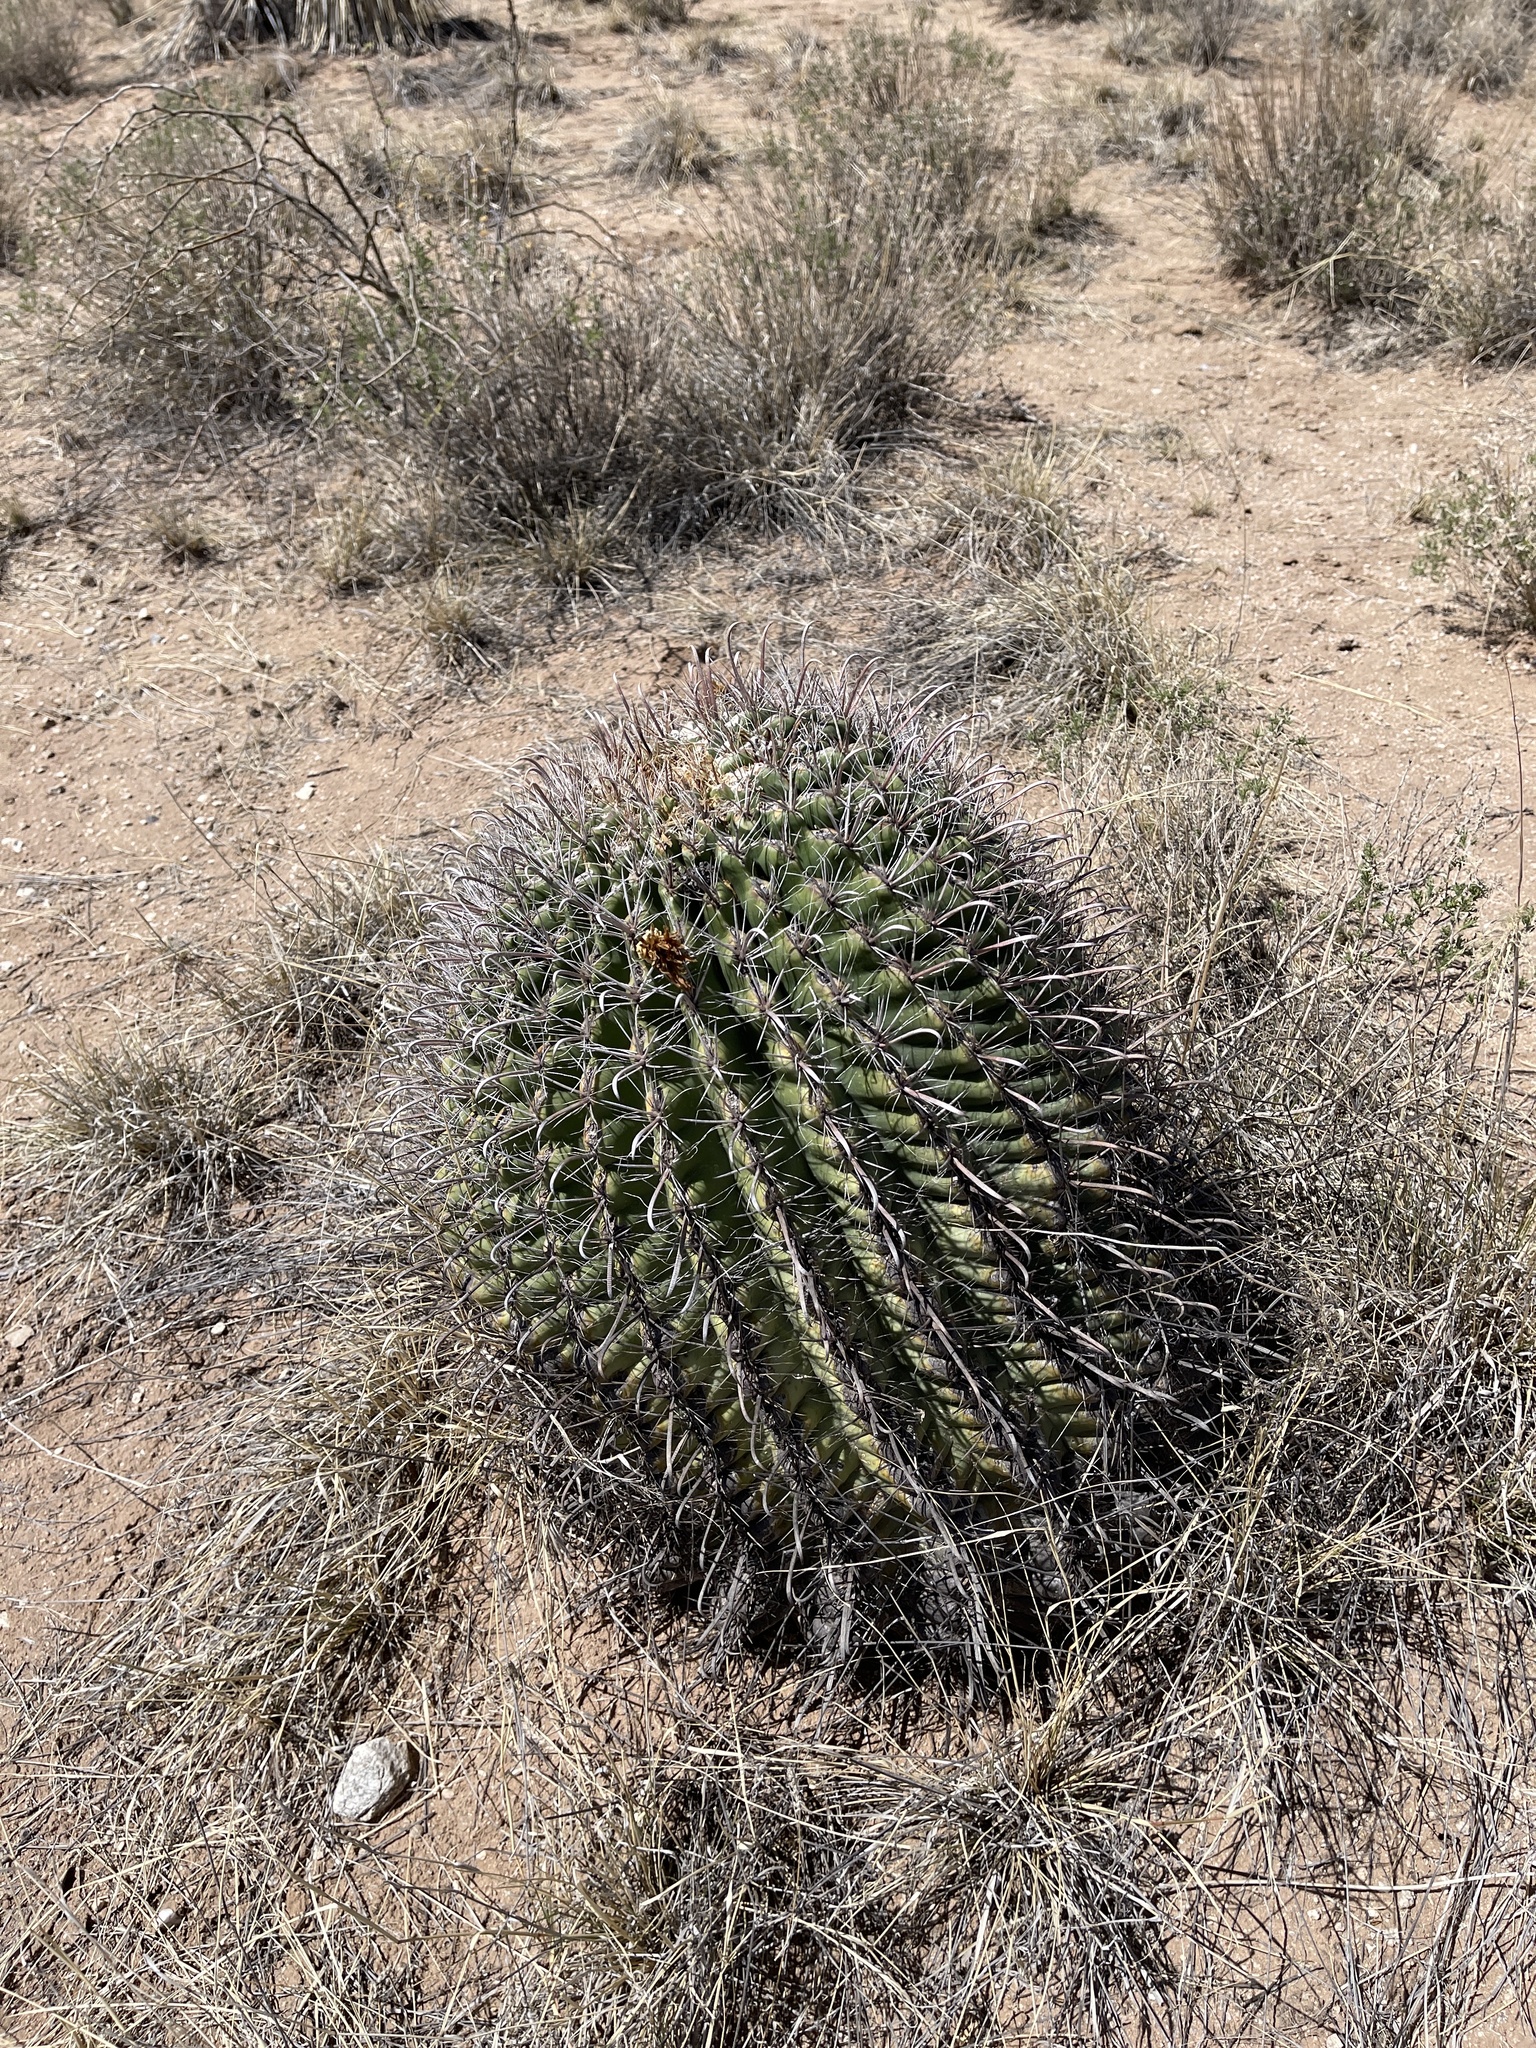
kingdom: Plantae
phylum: Tracheophyta
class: Magnoliopsida
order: Caryophyllales
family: Cactaceae
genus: Ferocactus
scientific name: Ferocactus wislizeni
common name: Candy barrel cactus
